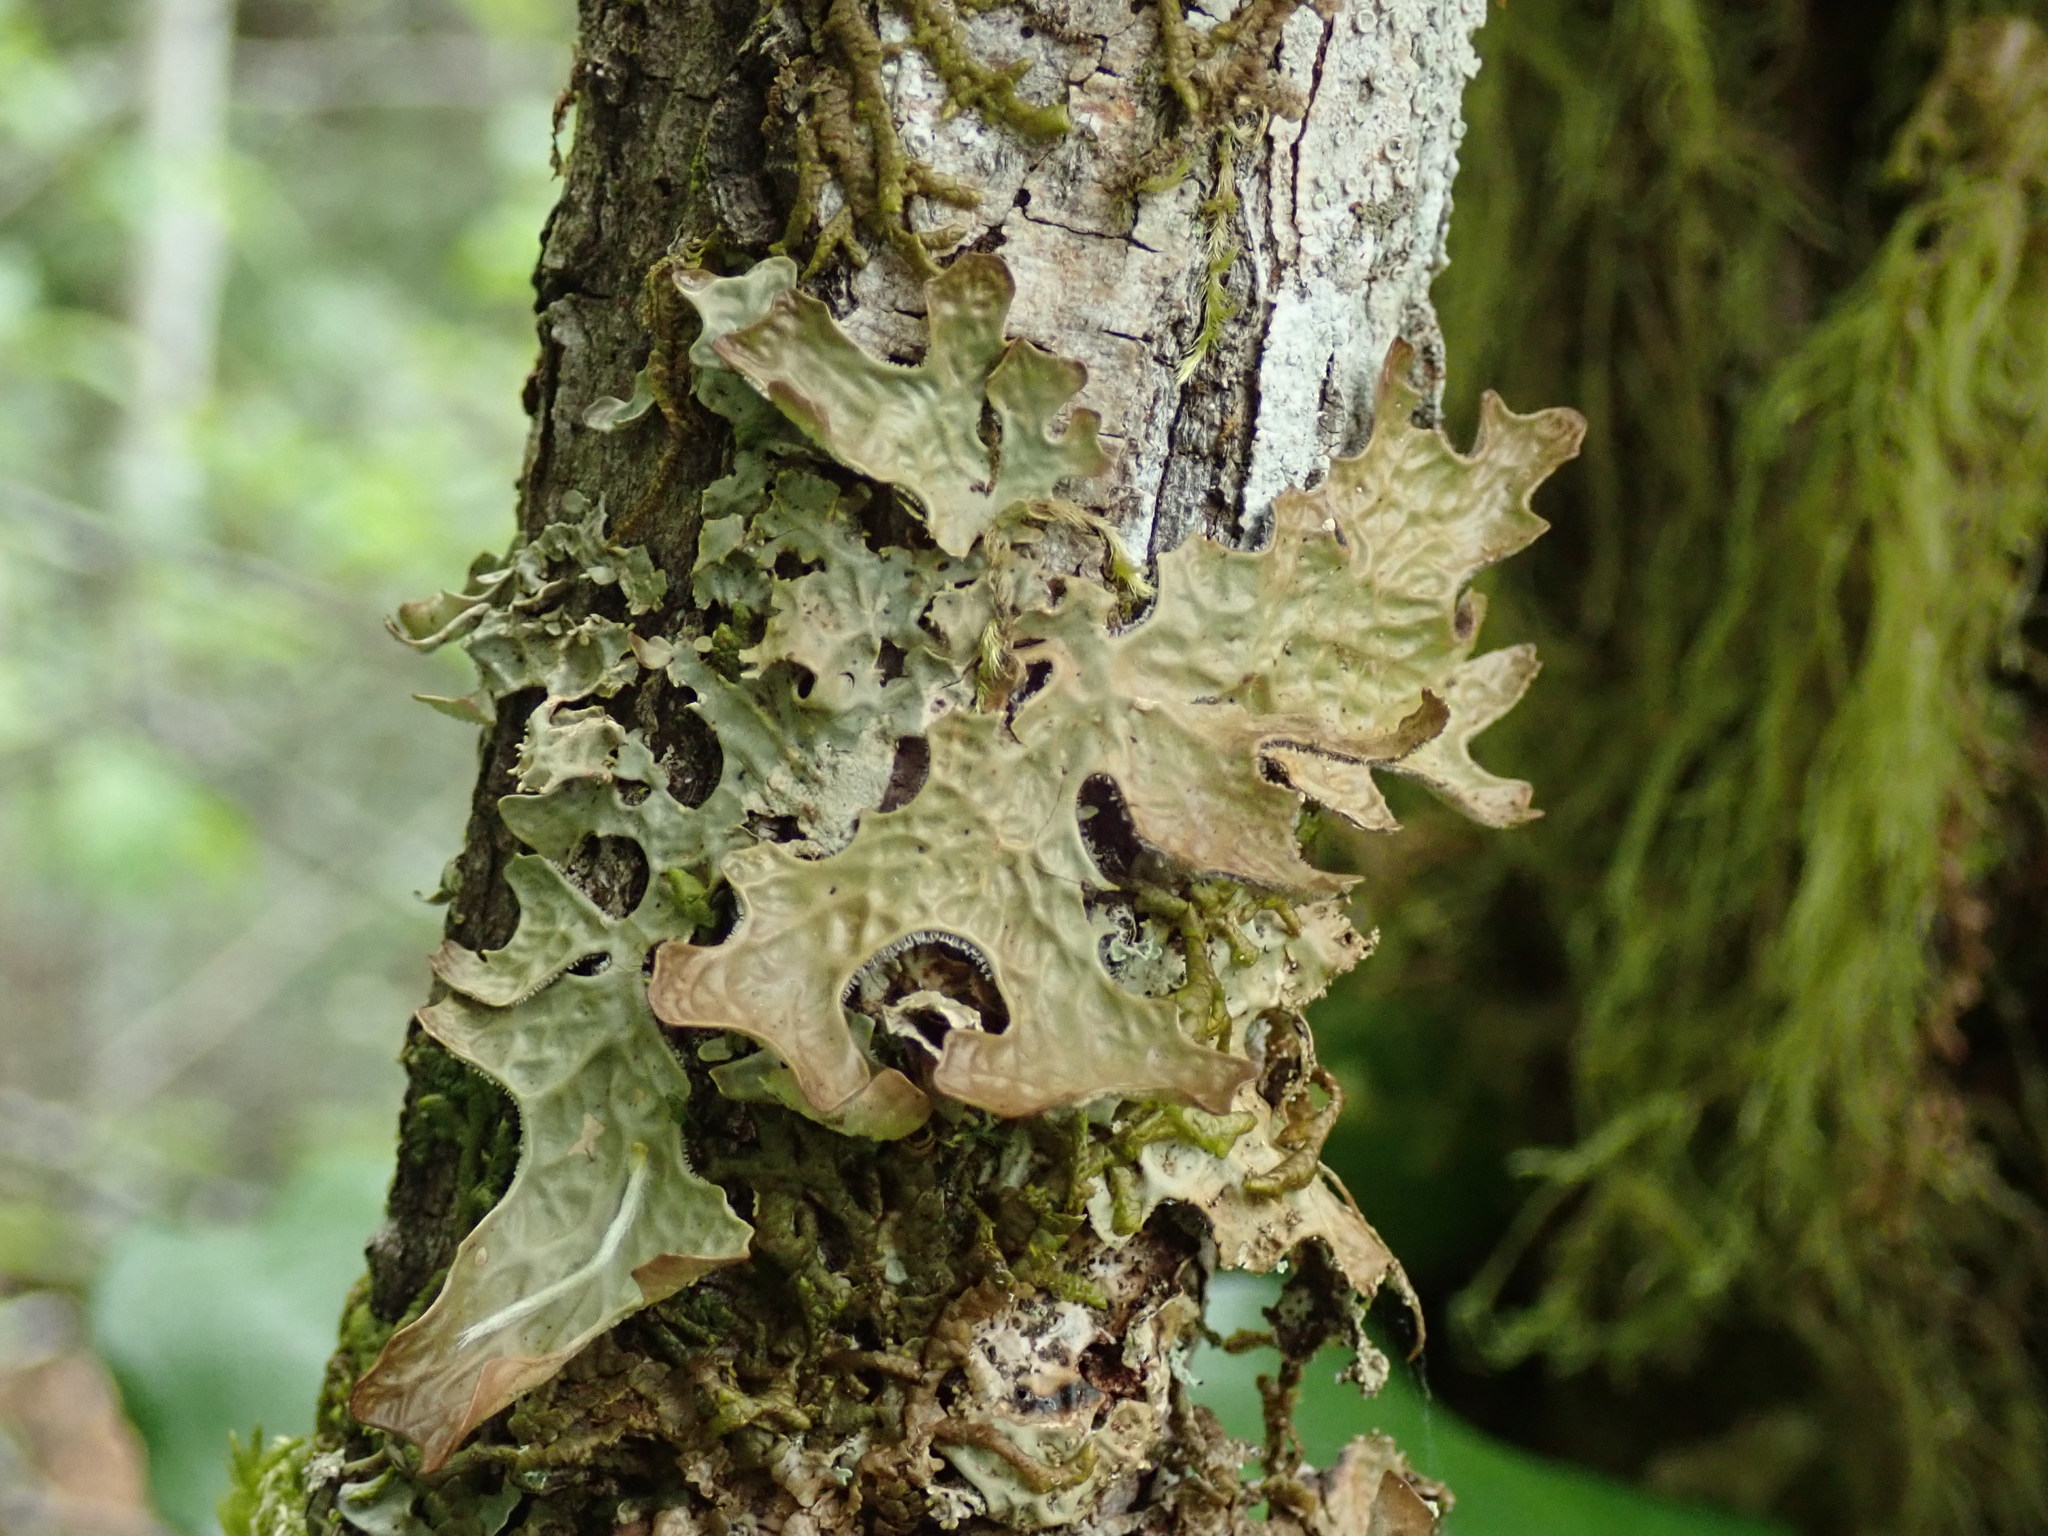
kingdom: Fungi
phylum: Ascomycota
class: Lecanoromycetes
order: Peltigerales
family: Lobariaceae
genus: Lobaria
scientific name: Lobaria pulmonaria
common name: Lungwort
